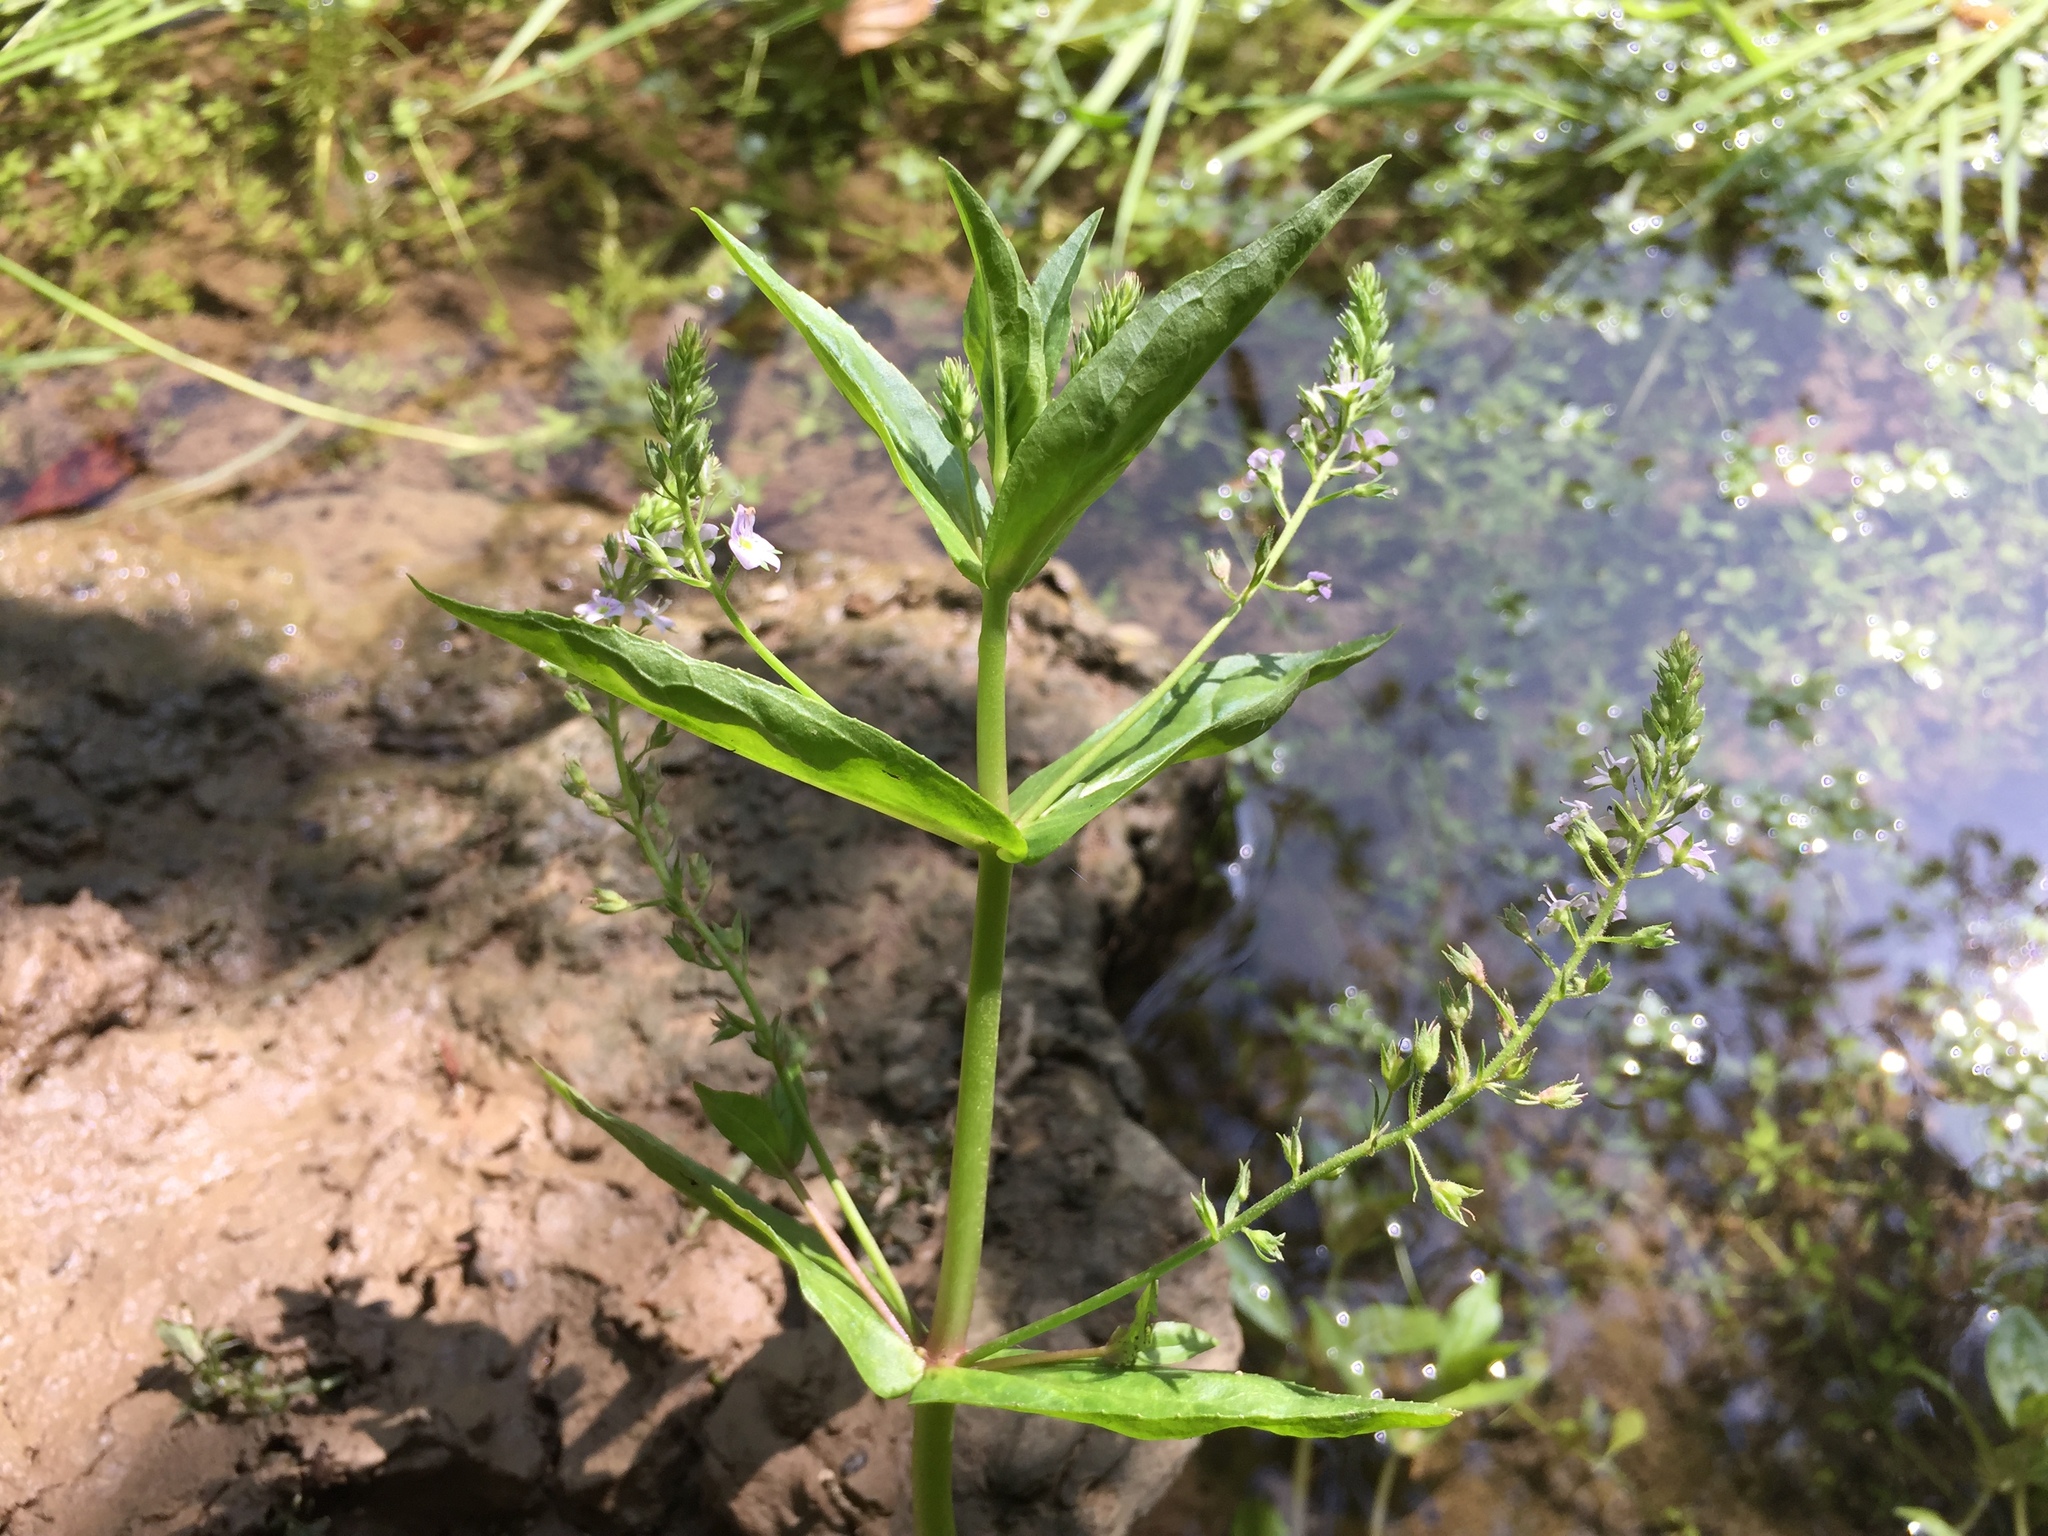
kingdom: Plantae
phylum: Tracheophyta
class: Magnoliopsida
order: Lamiales
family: Plantaginaceae
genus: Veronica
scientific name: Veronica anagallis-aquatica
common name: Water speedwell
